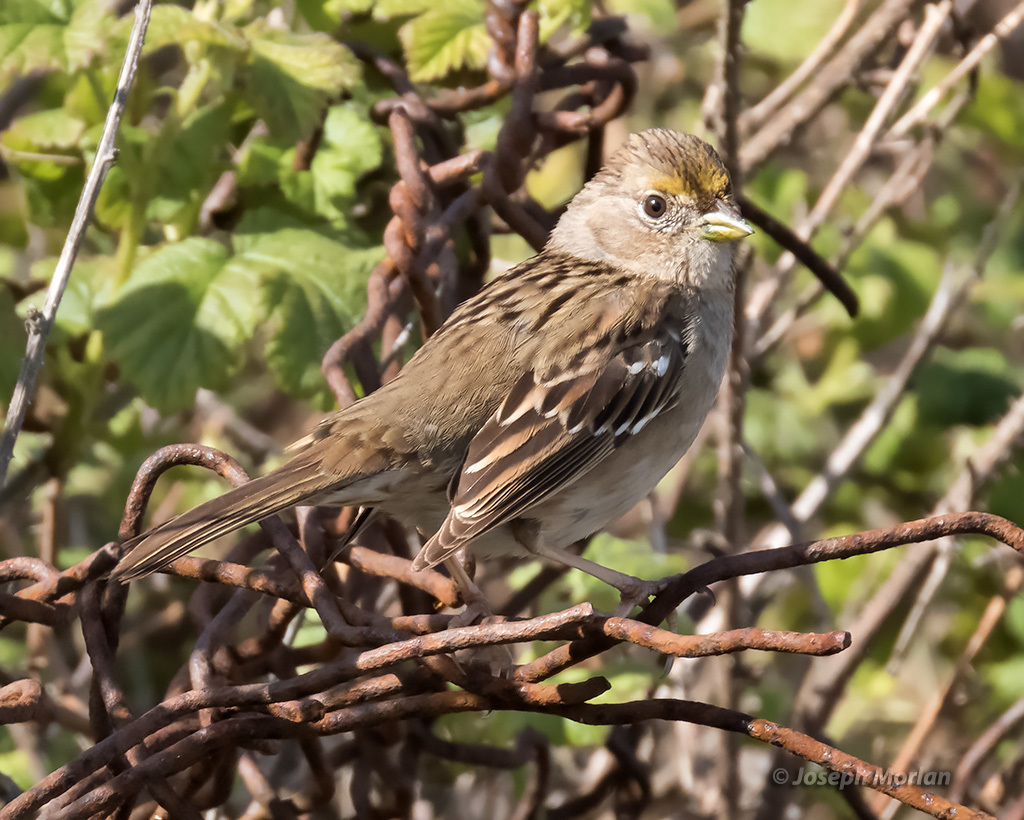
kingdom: Animalia
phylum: Chordata
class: Aves
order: Passeriformes
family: Passerellidae
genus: Zonotrichia
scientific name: Zonotrichia atricapilla
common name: Golden-crowned sparrow
